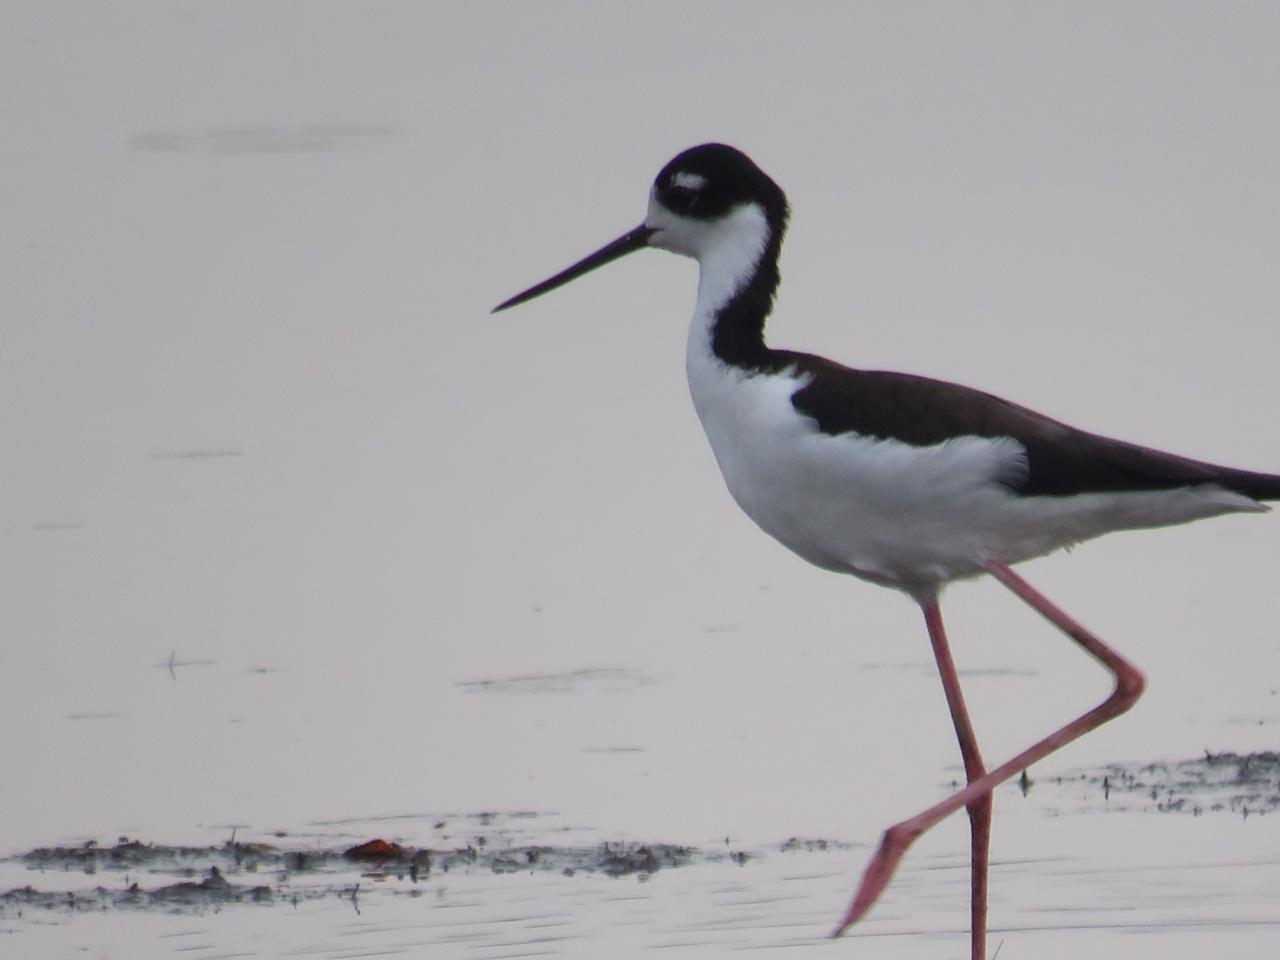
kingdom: Animalia
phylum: Chordata
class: Aves
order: Charadriiformes
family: Recurvirostridae
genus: Himantopus
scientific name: Himantopus mexicanus
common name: Black-necked stilt
